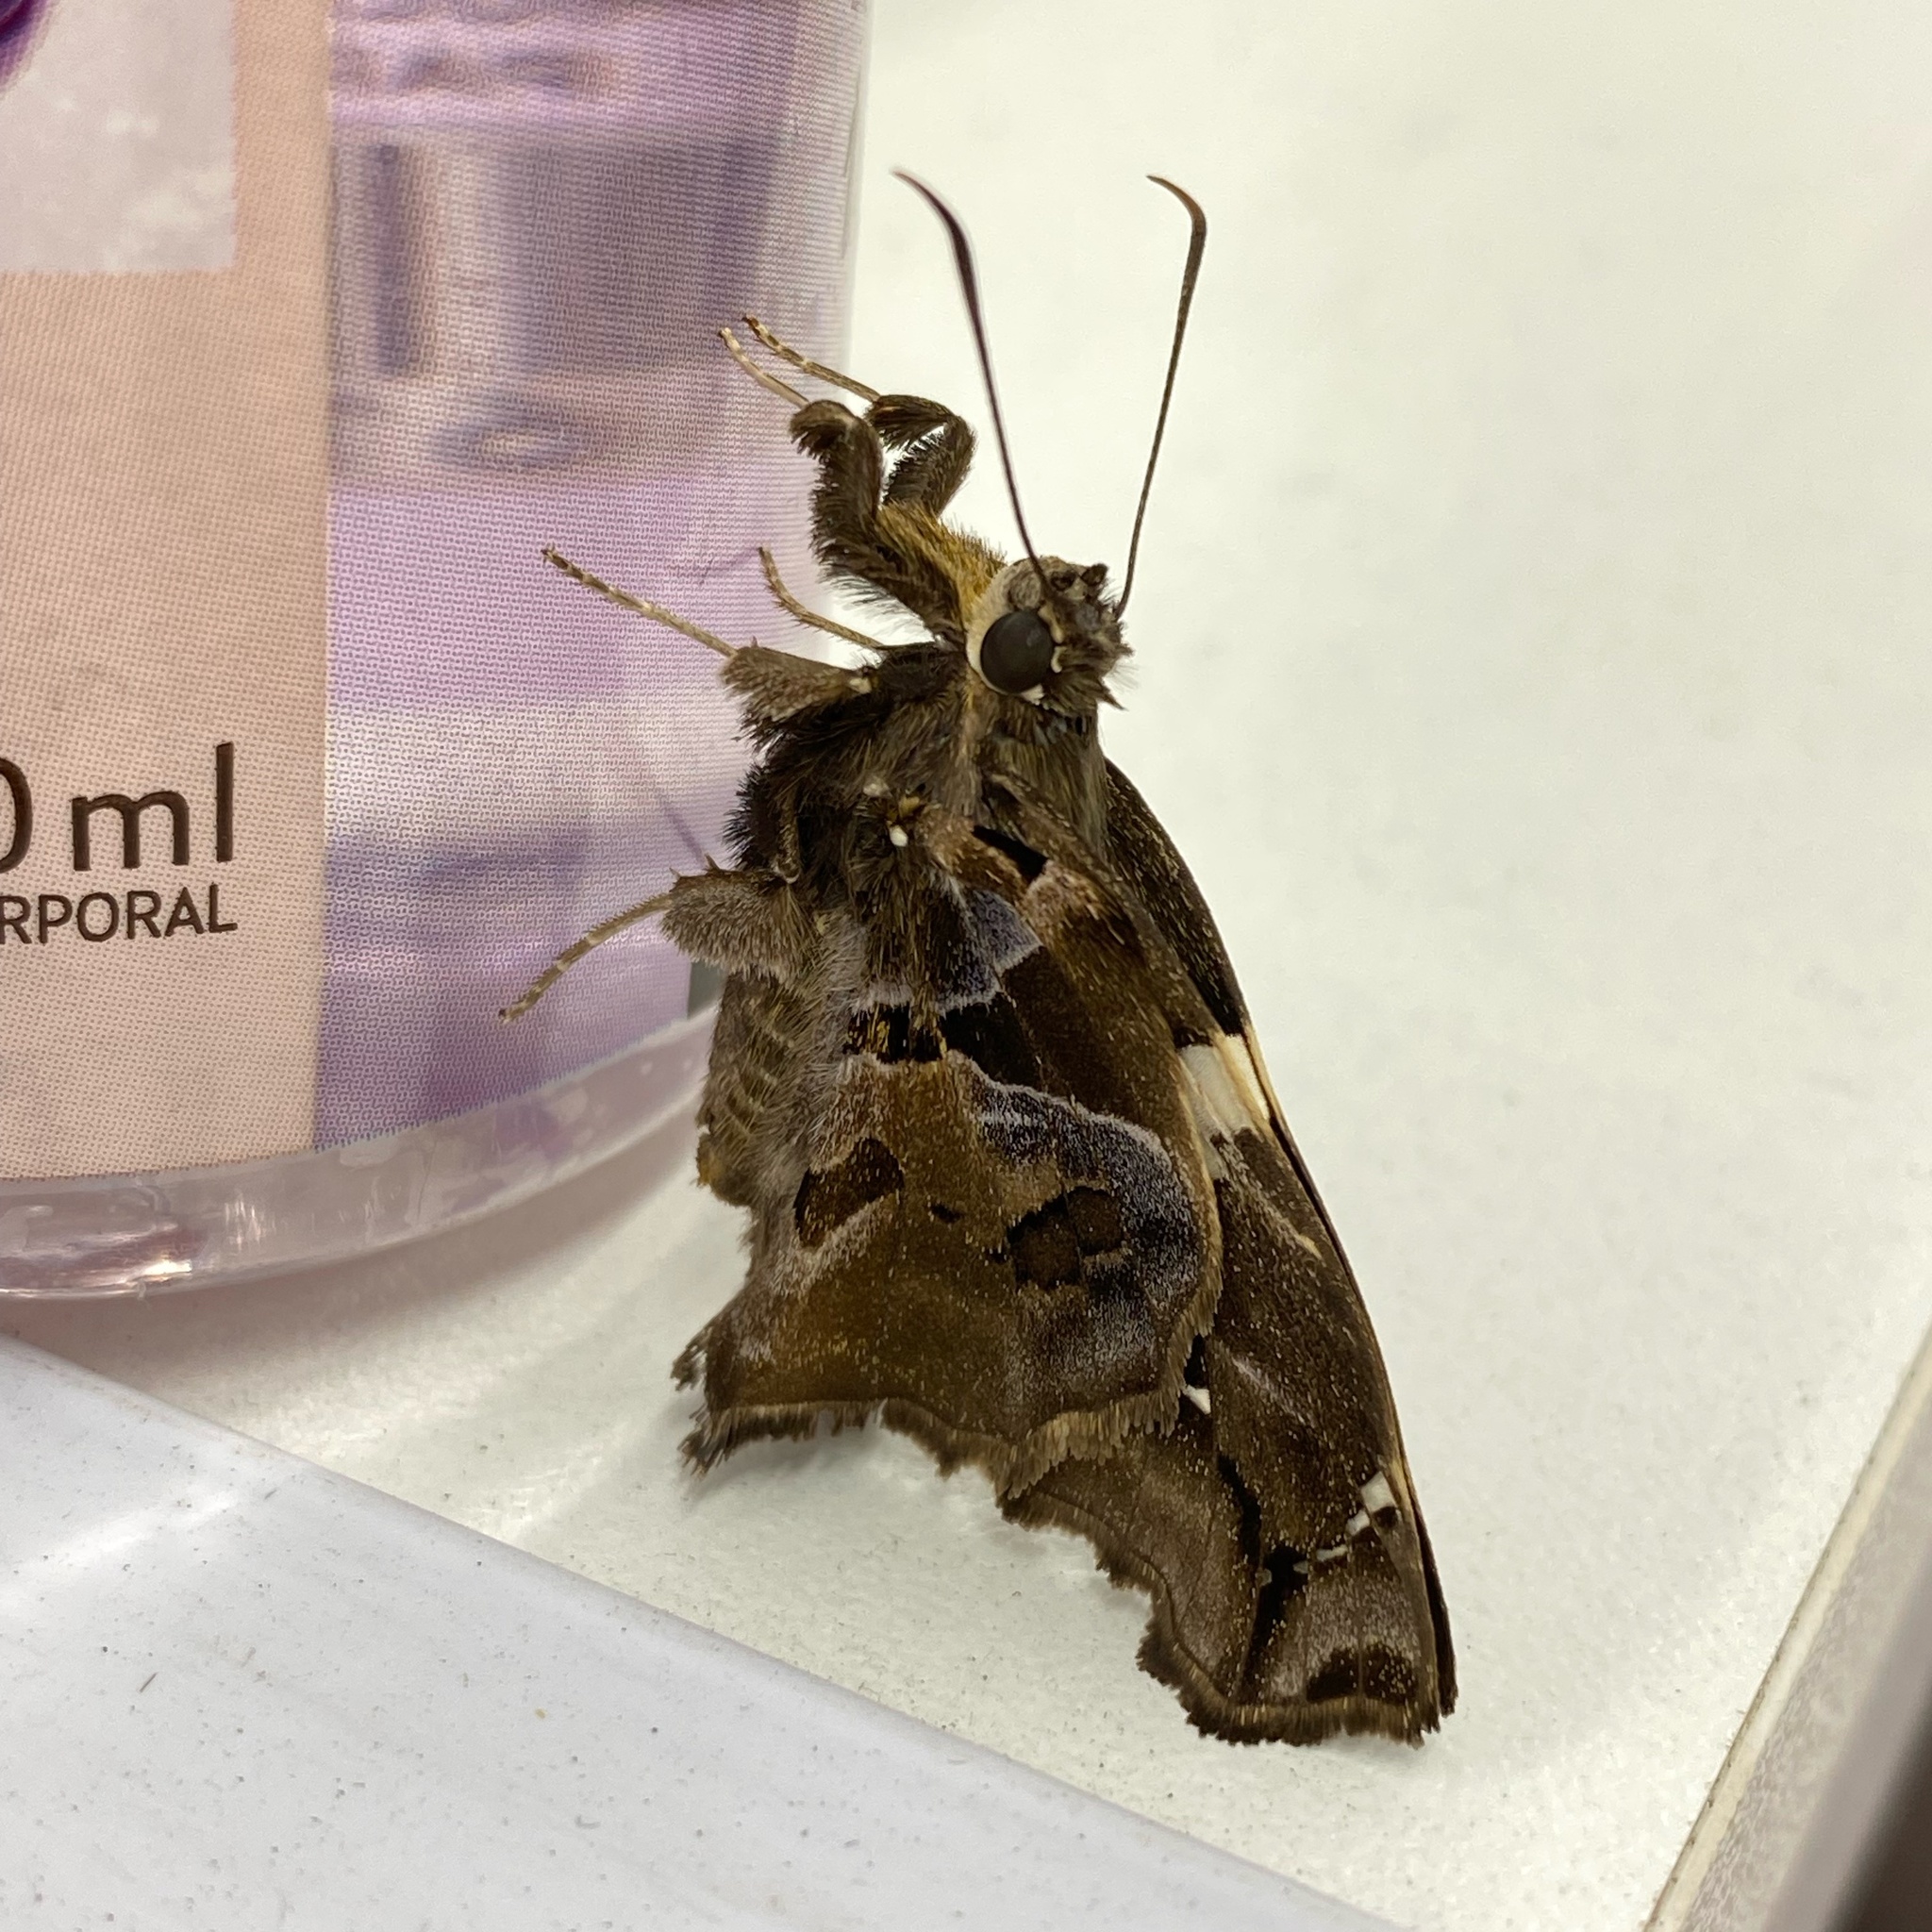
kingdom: Animalia
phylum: Arthropoda
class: Insecta
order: Lepidoptera
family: Hesperiidae
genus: Spathilepia
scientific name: Spathilepia clonius
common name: Falcate skipper
